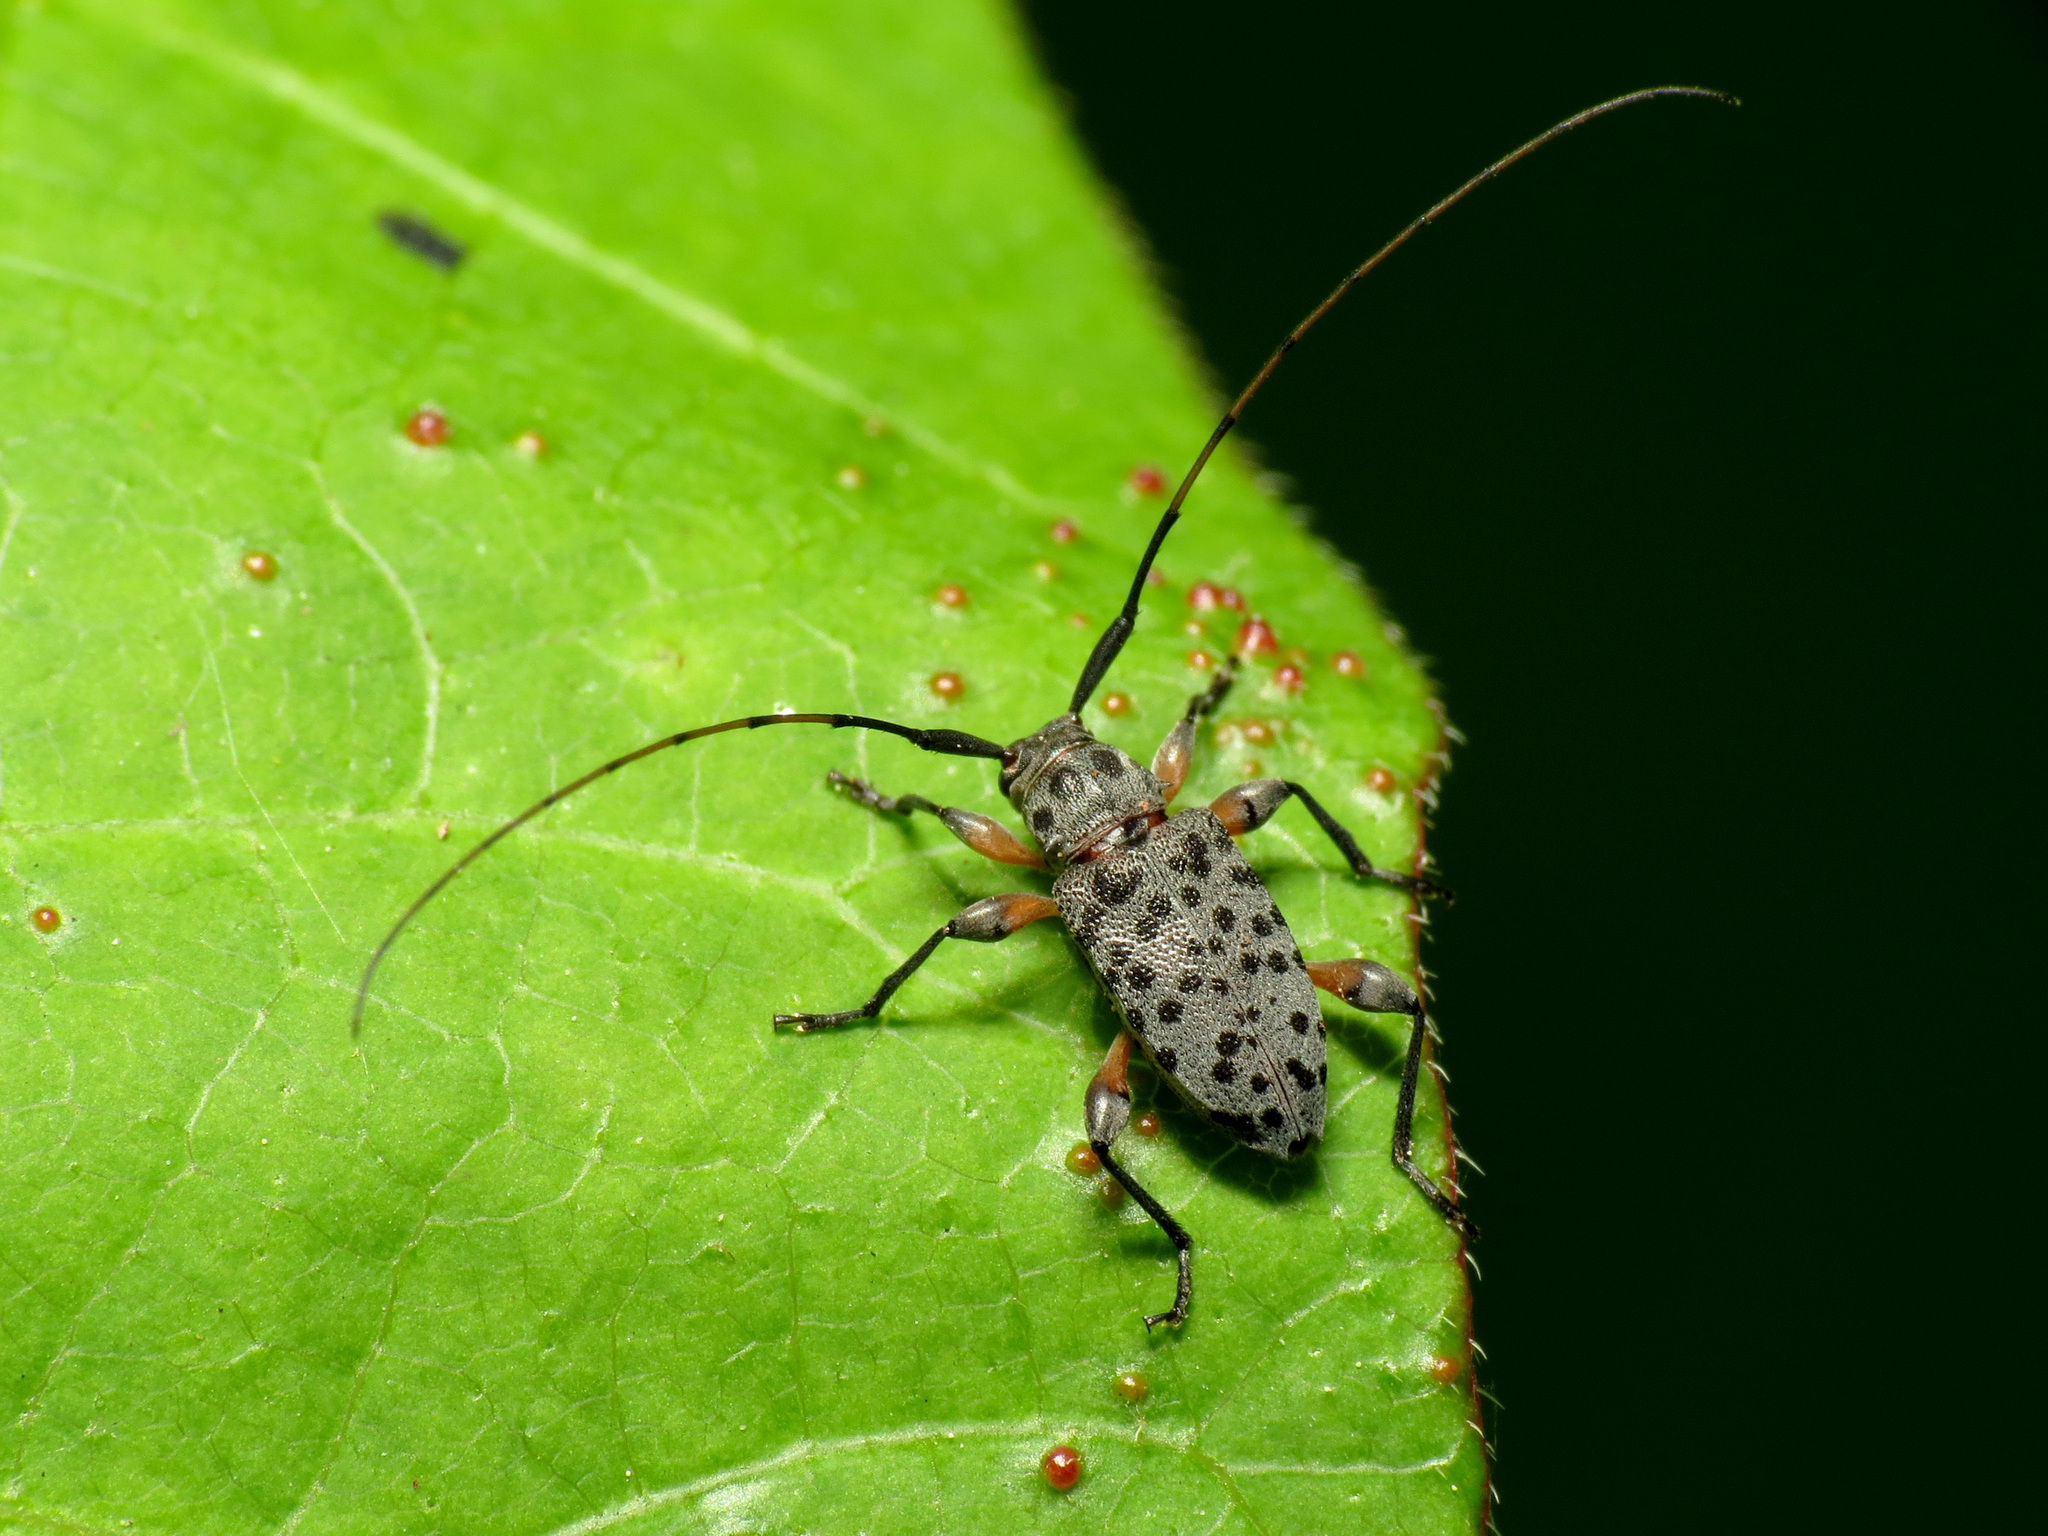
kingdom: Animalia
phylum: Arthropoda
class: Insecta
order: Coleoptera
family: Cerambycidae
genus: Hyperplatys
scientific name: Hyperplatys aspersa
